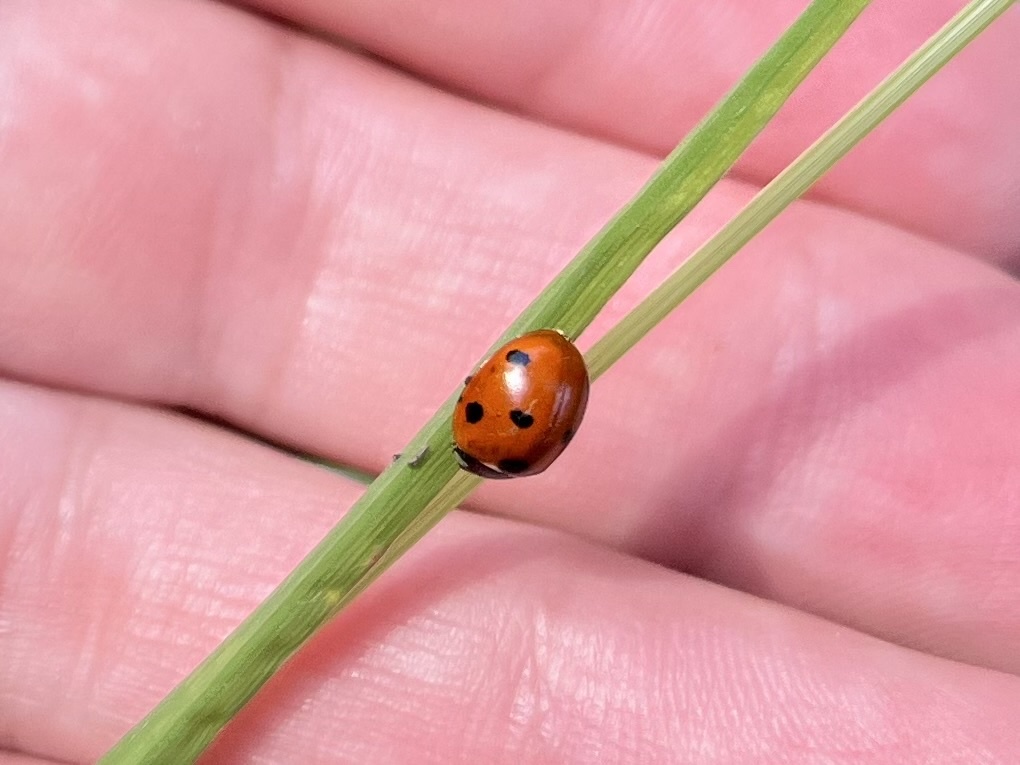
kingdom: Animalia
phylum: Arthropoda
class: Insecta
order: Coleoptera
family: Coccinellidae
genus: Coccinella
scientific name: Coccinella septempunctata
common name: Sevenspotted lady beetle
